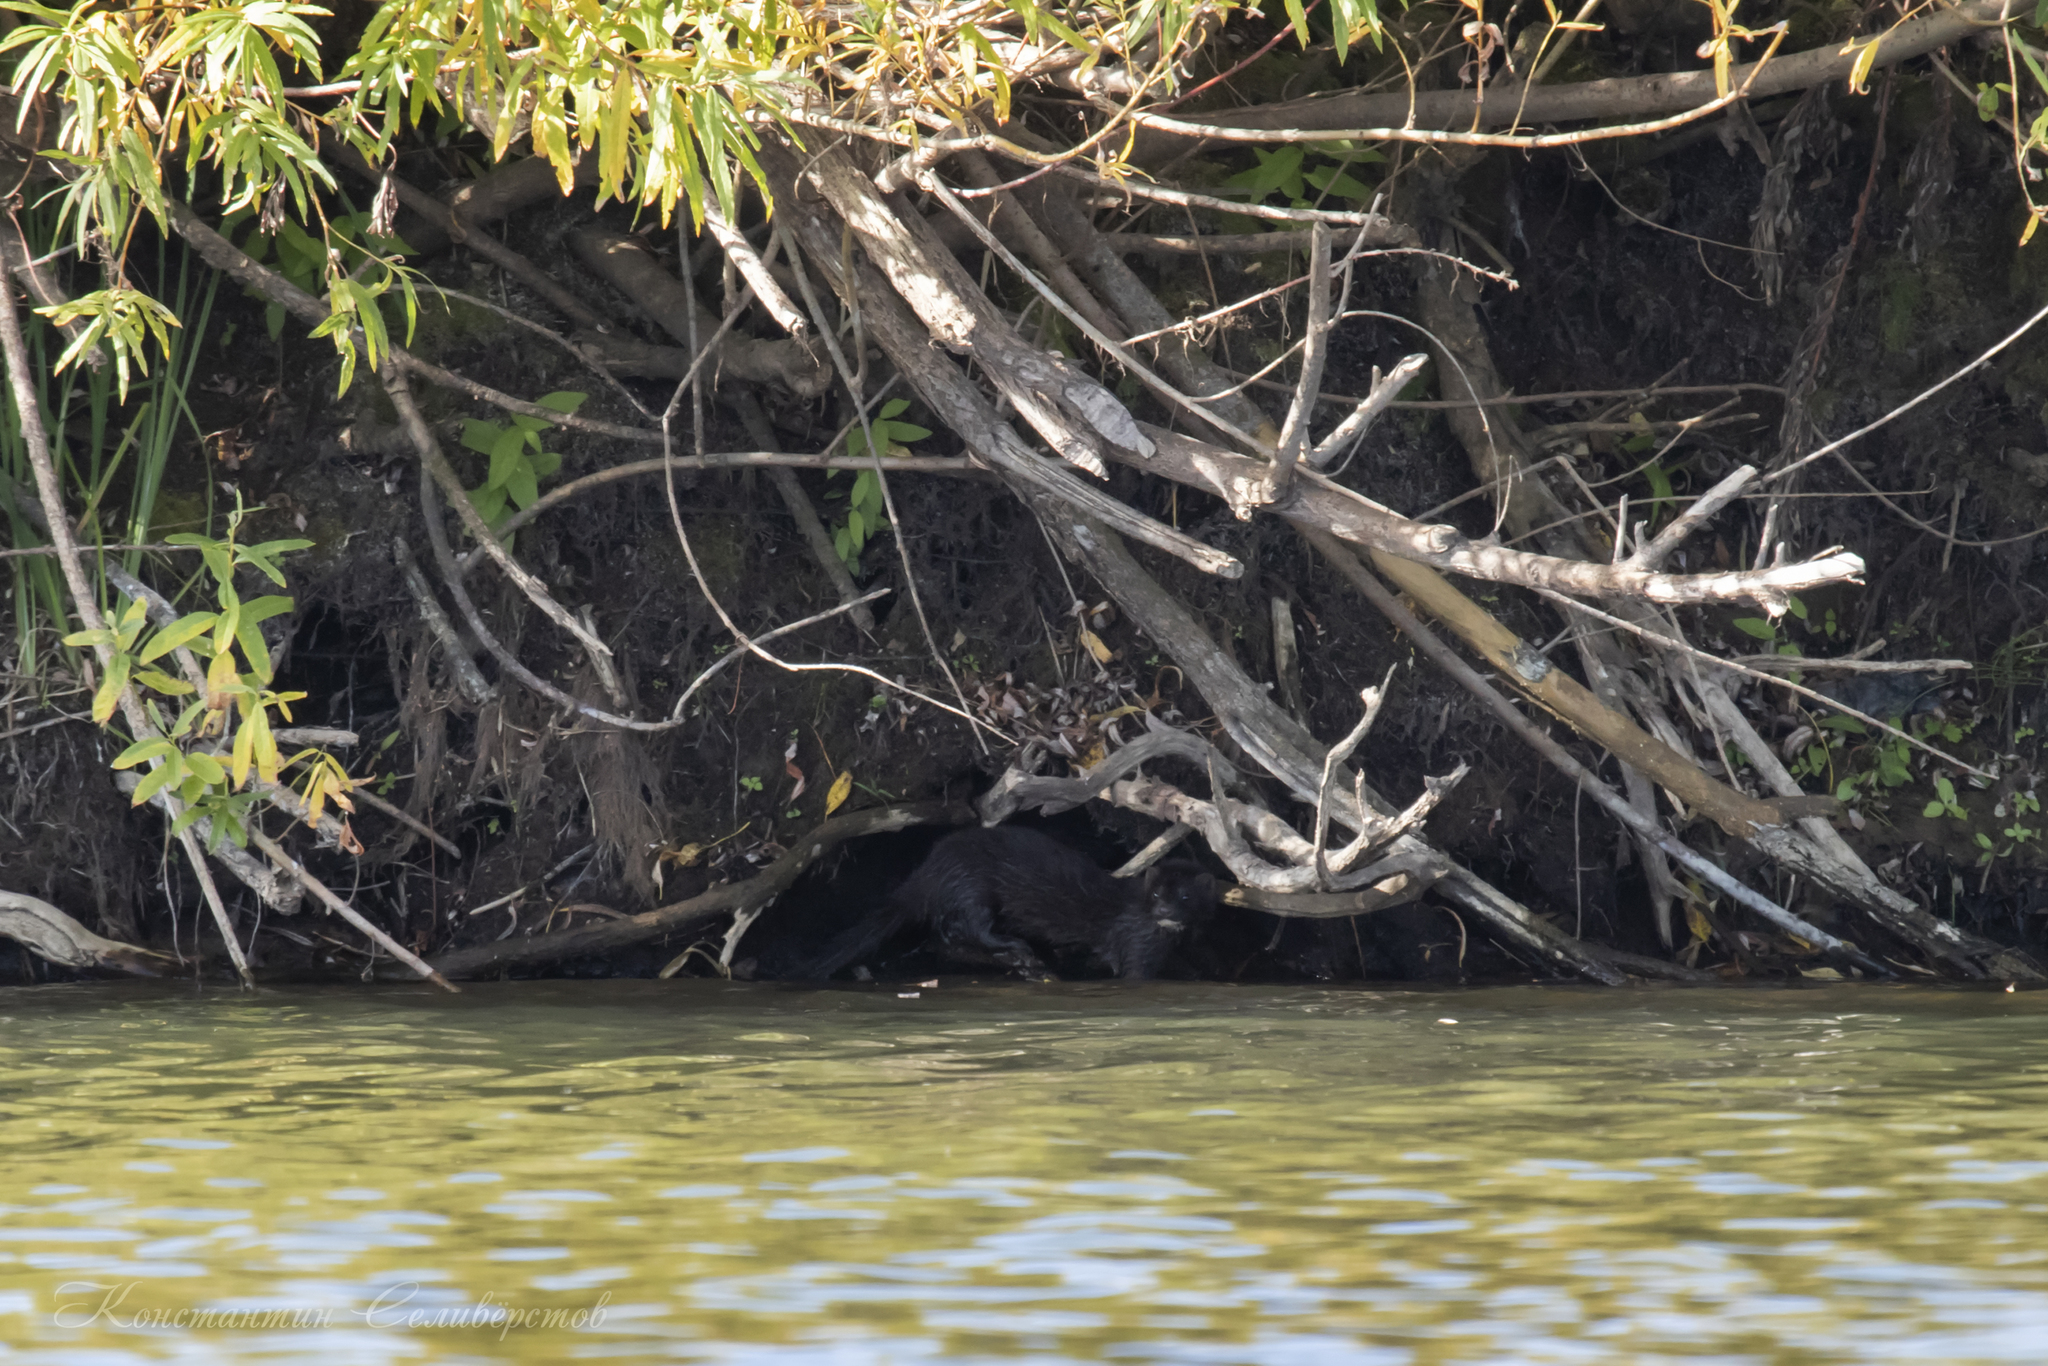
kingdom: Animalia
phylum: Chordata
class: Mammalia
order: Carnivora
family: Mustelidae
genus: Mustela
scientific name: Mustela
